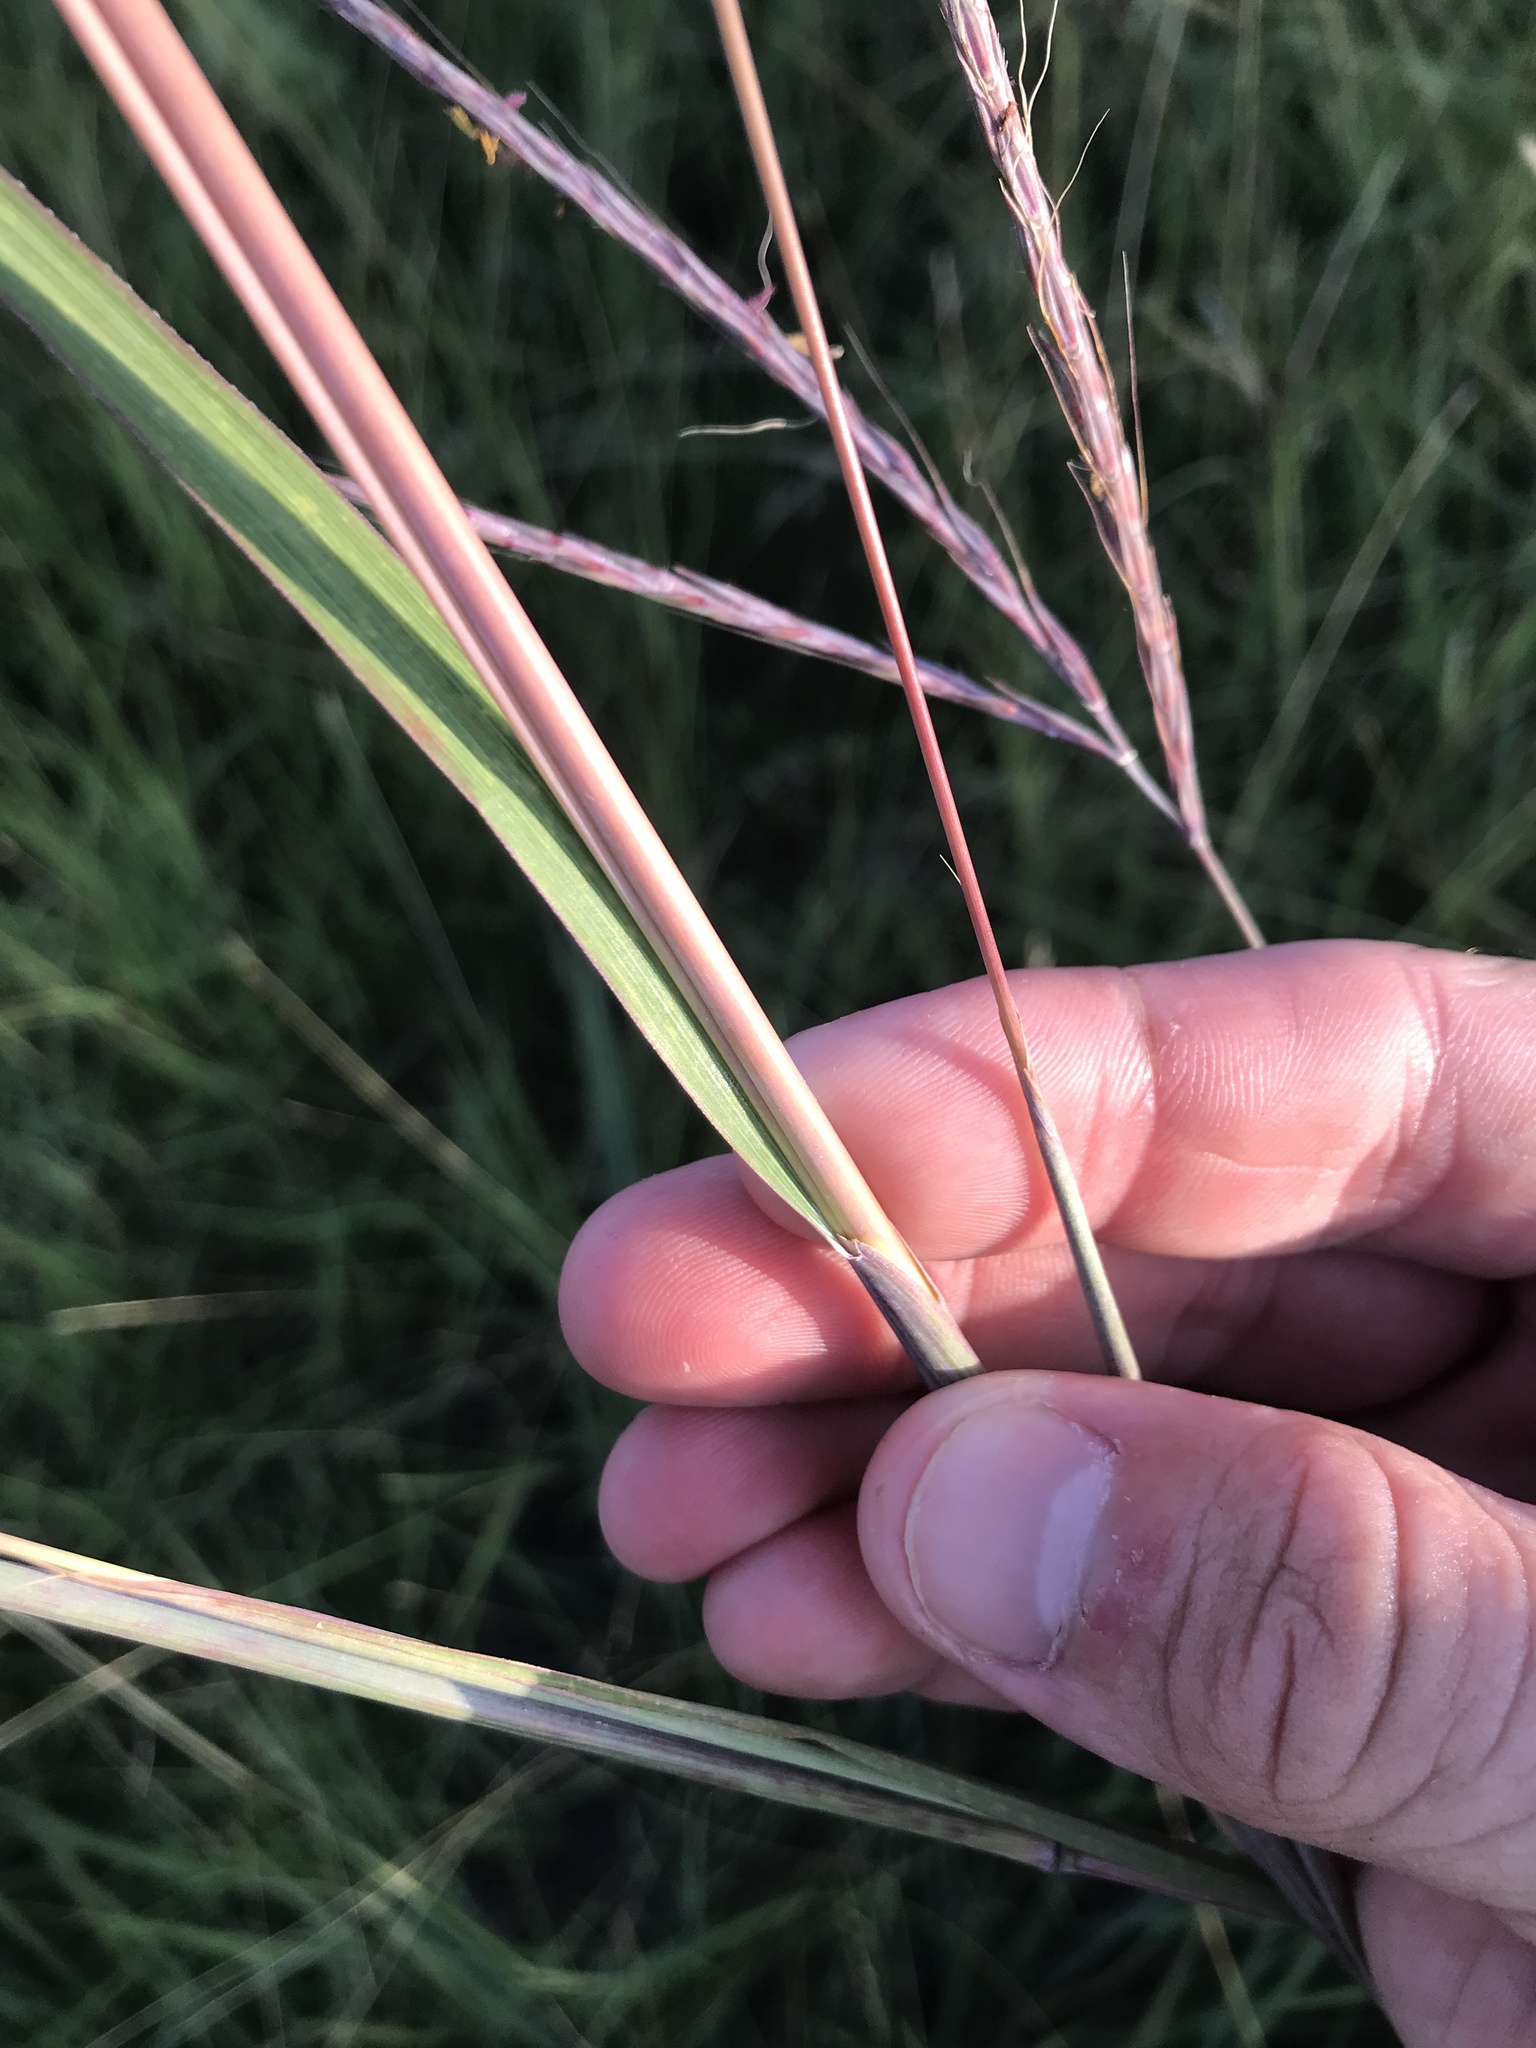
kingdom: Plantae
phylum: Tracheophyta
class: Liliopsida
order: Poales
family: Poaceae
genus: Andropogon
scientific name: Andropogon gerardi
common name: Big bluestem
